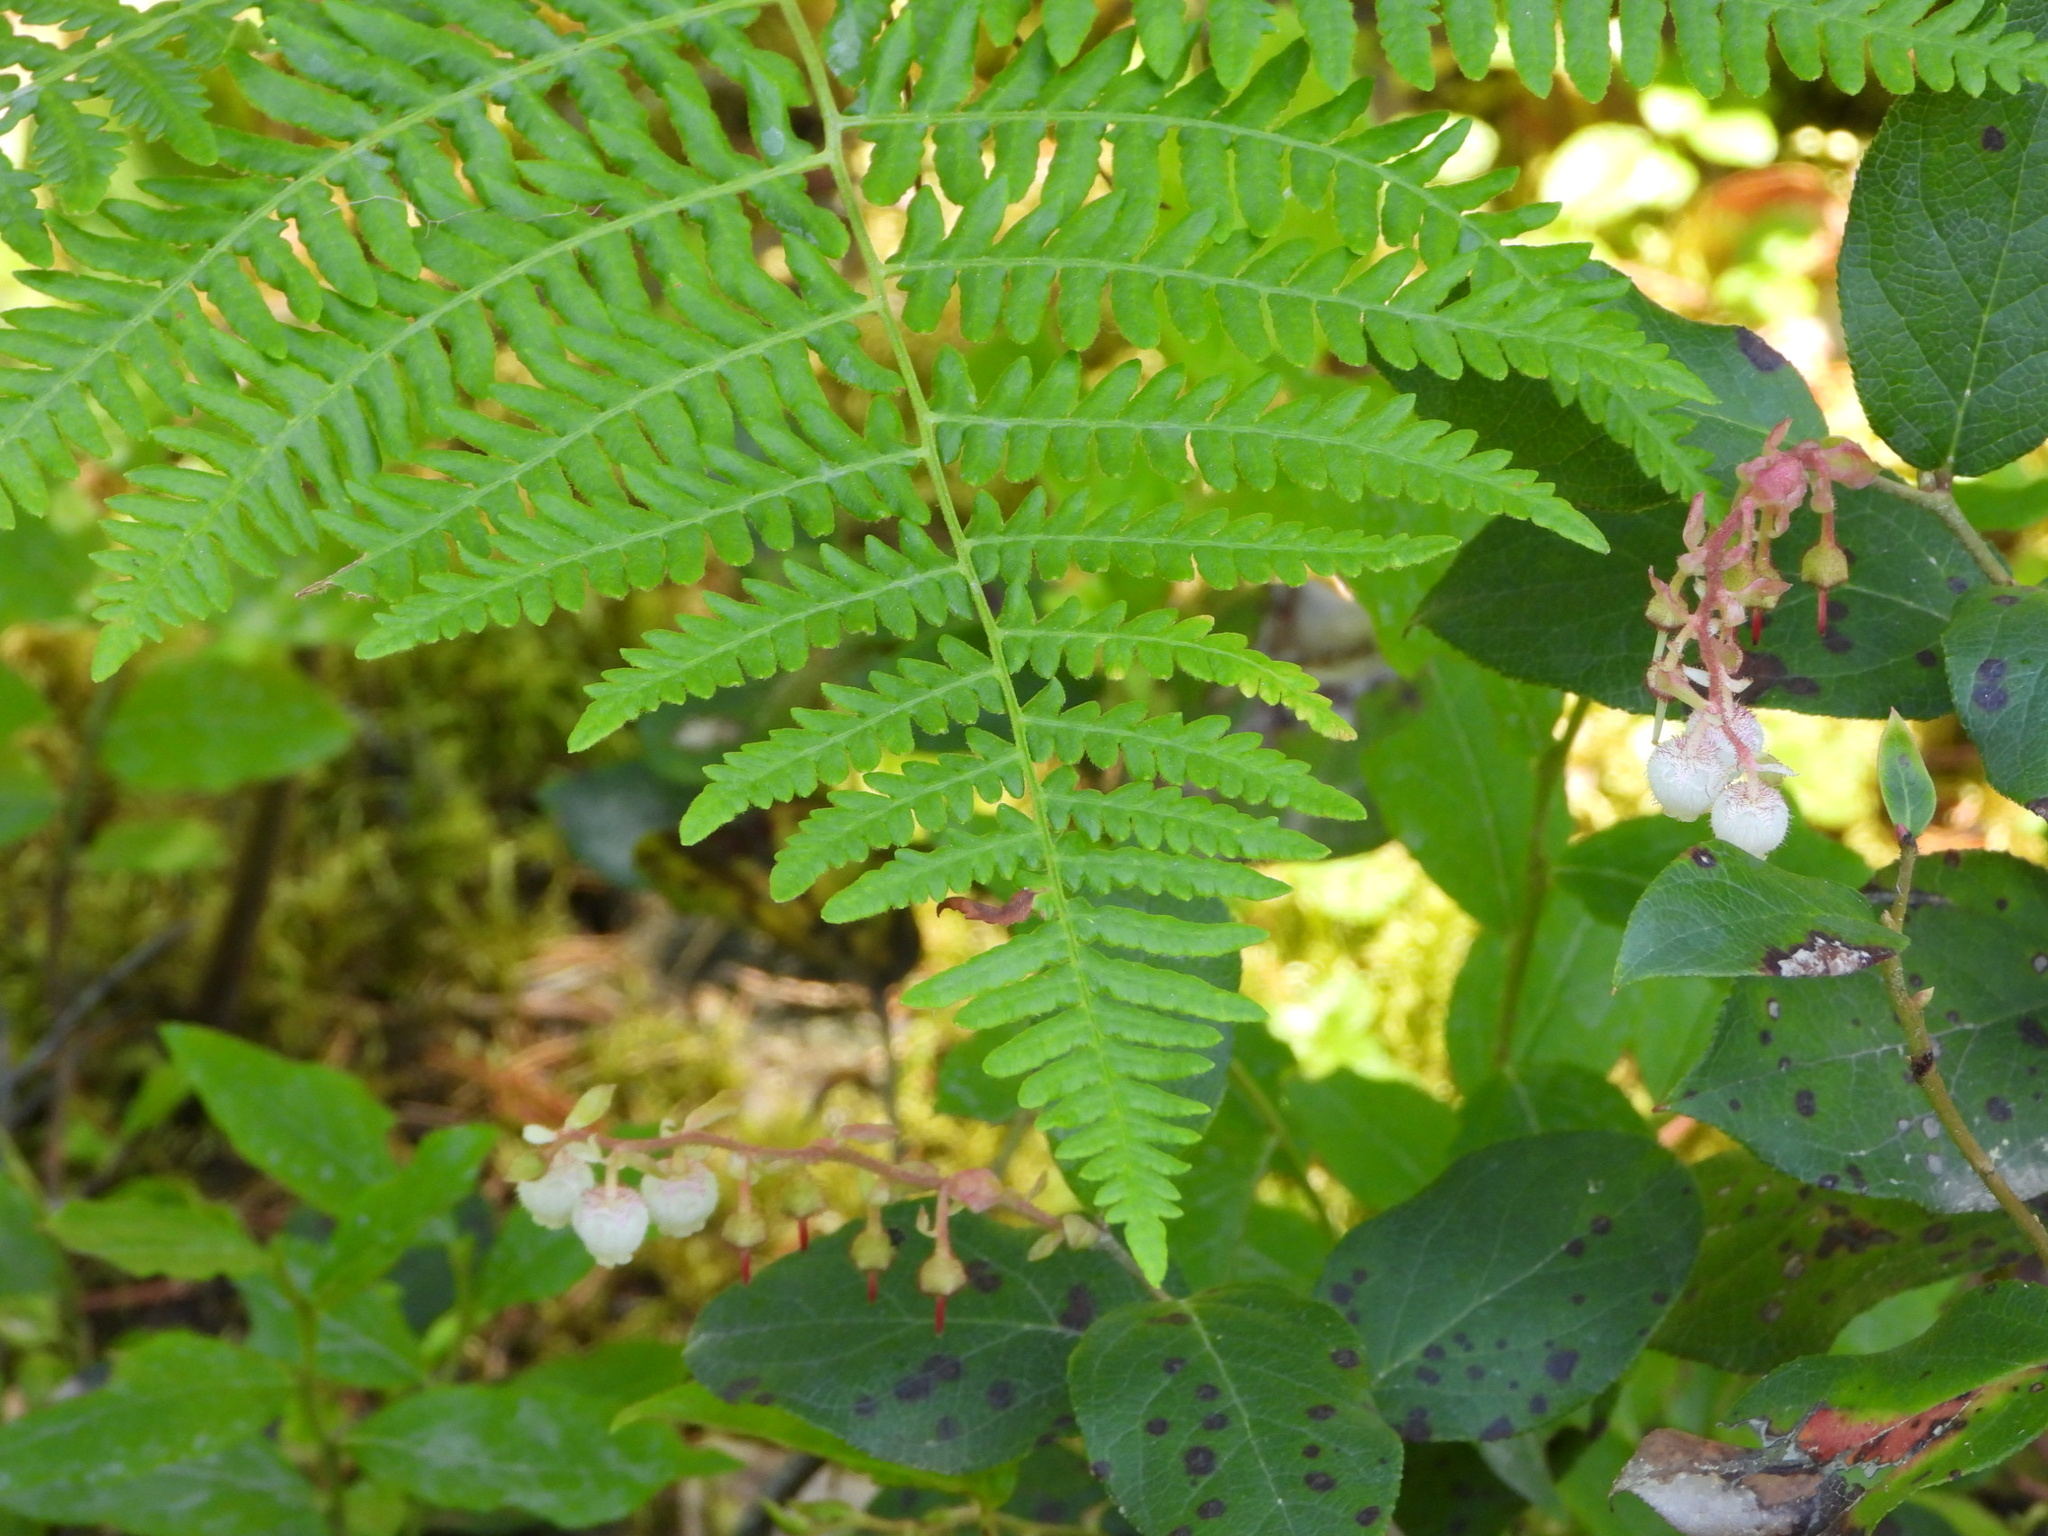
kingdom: Plantae
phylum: Tracheophyta
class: Polypodiopsida
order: Polypodiales
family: Dennstaedtiaceae
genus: Pteridium
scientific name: Pteridium aquilinum
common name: Bracken
